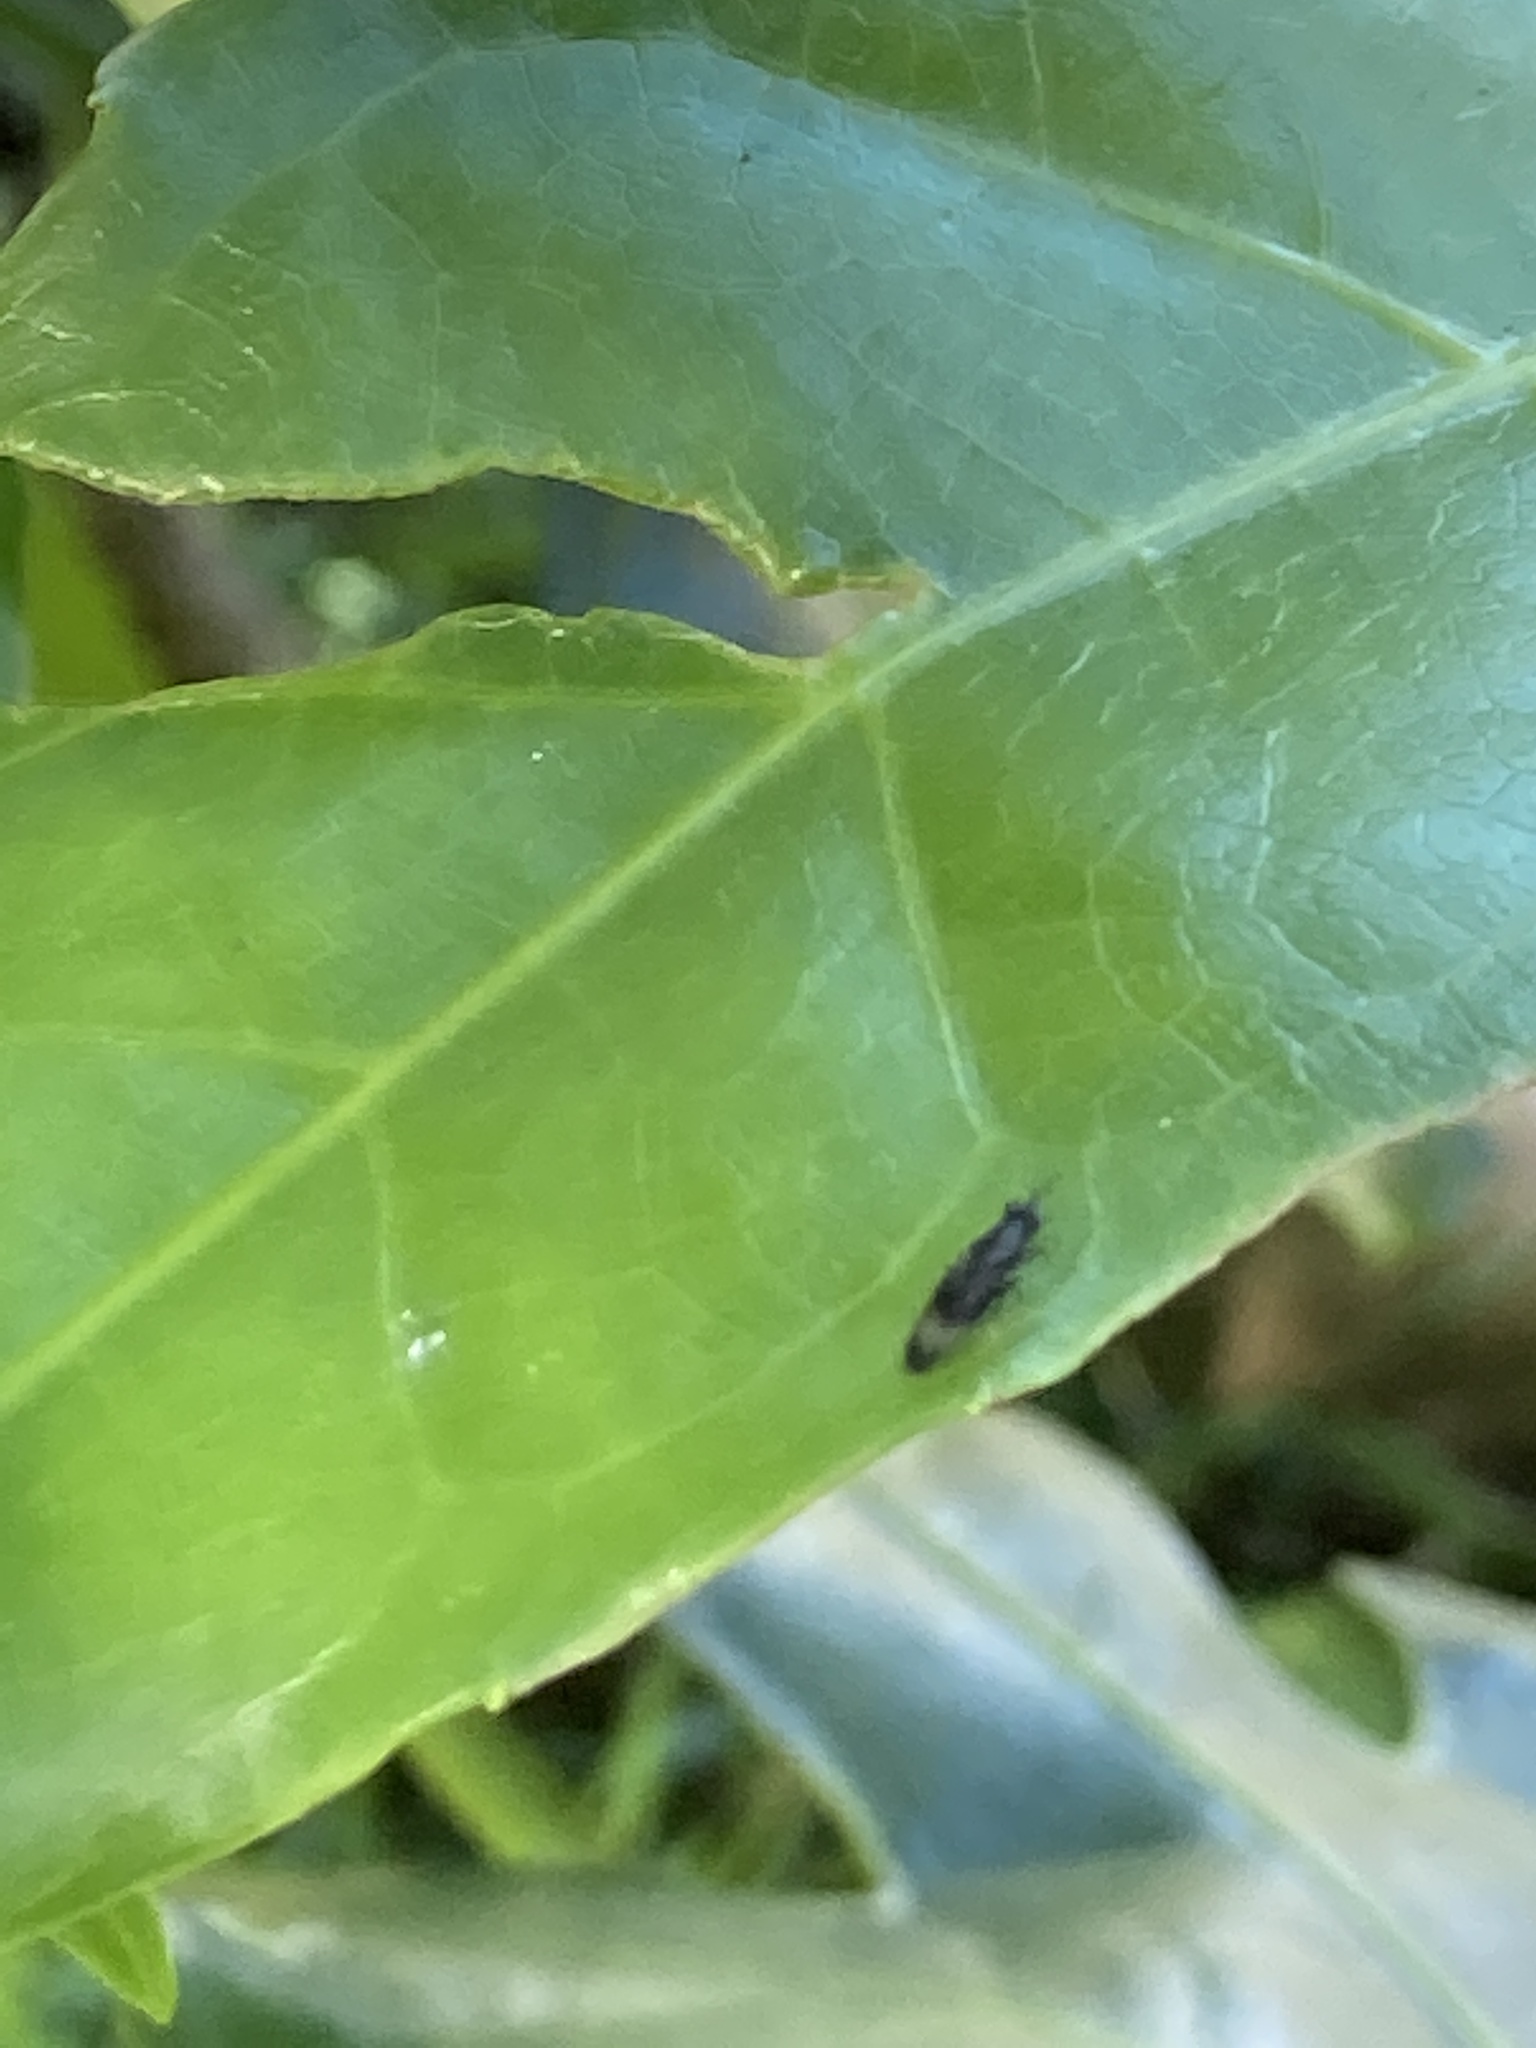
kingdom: Animalia
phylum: Arthropoda
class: Insecta
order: Diptera
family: Stratiomyidae
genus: Dysbiota
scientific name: Dysbiota peregrina
